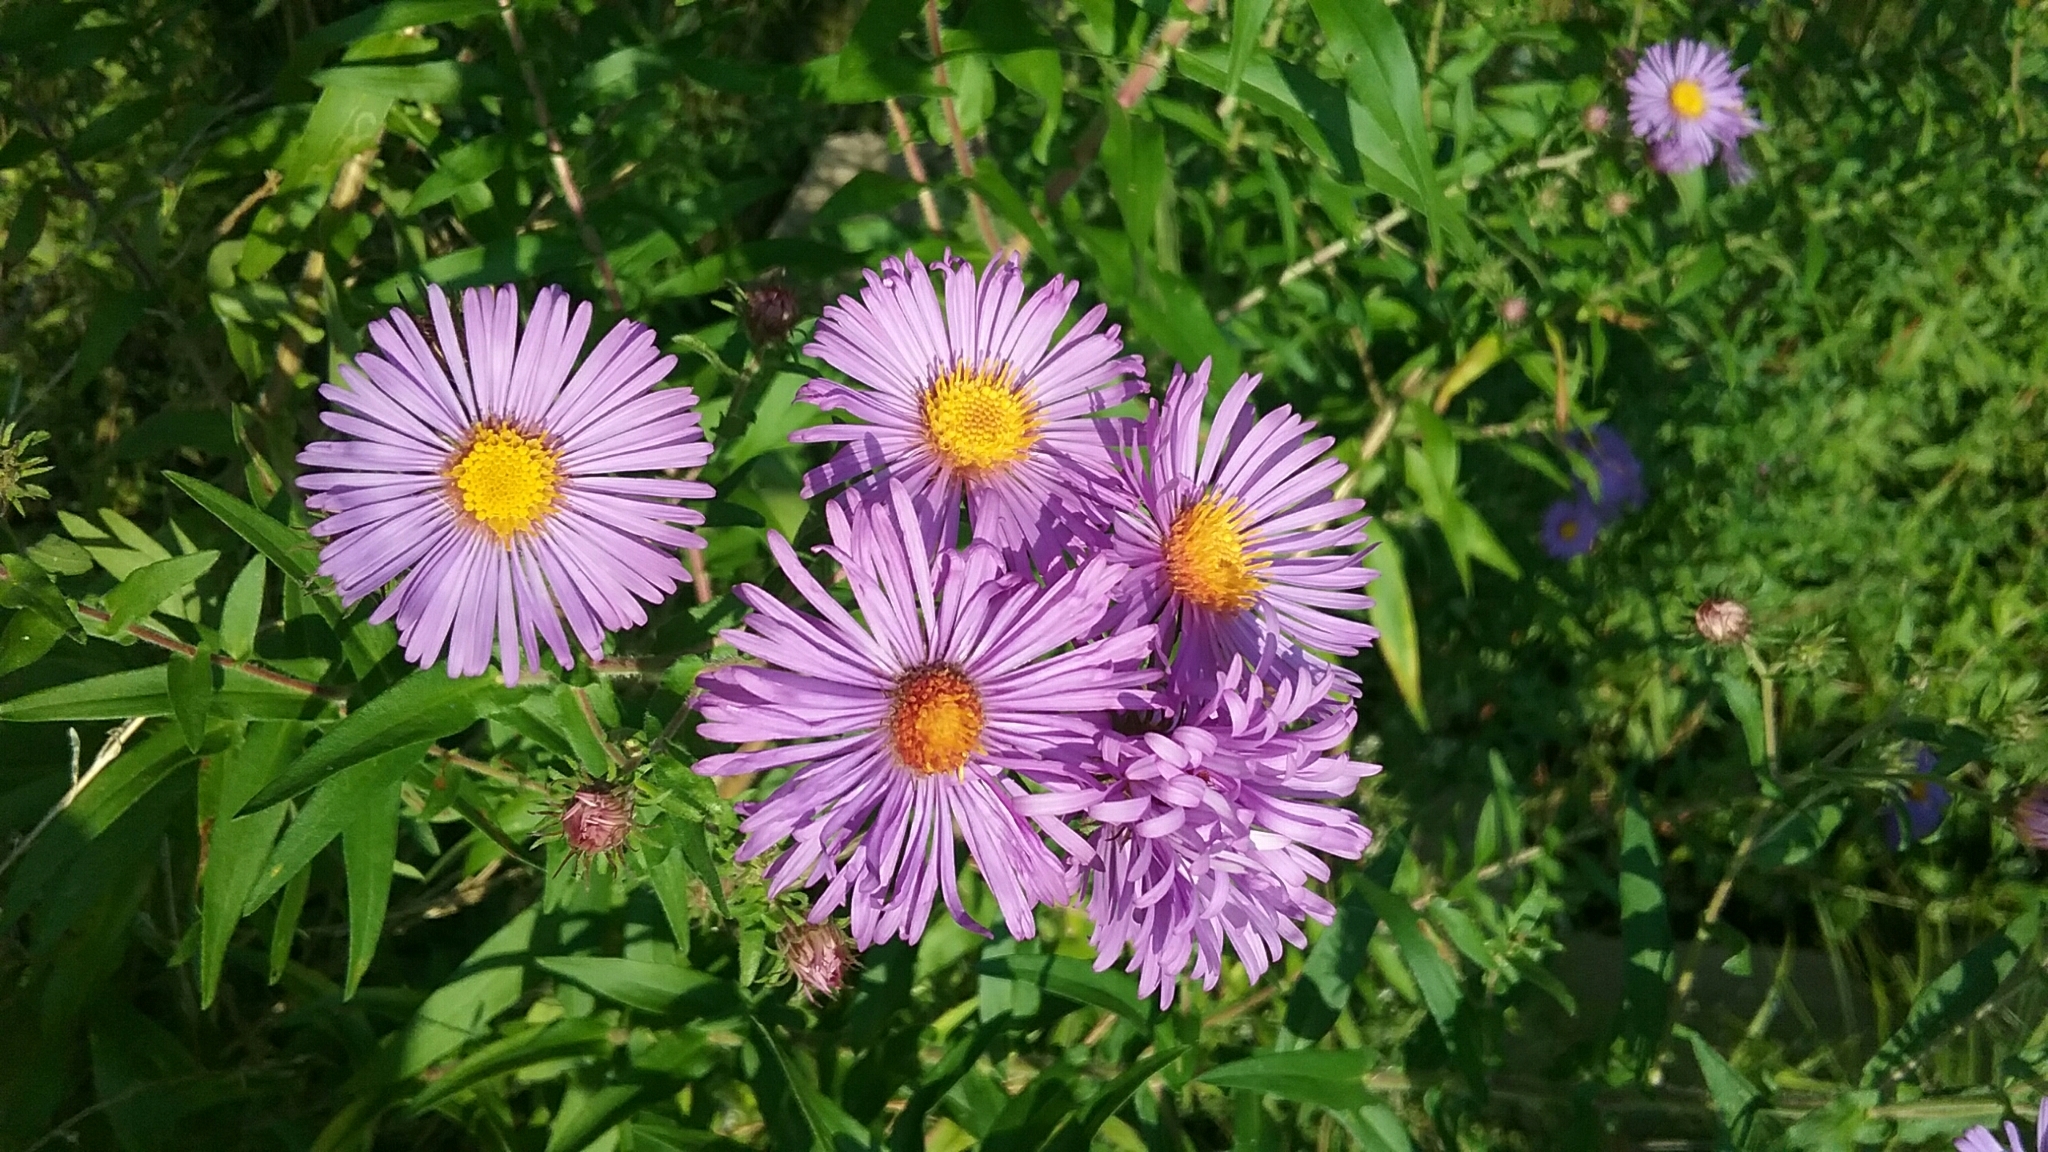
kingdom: Plantae
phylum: Tracheophyta
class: Magnoliopsida
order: Asterales
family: Asteraceae
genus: Symphyotrichum
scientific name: Symphyotrichum novae-angliae
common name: Michaelmas daisy
